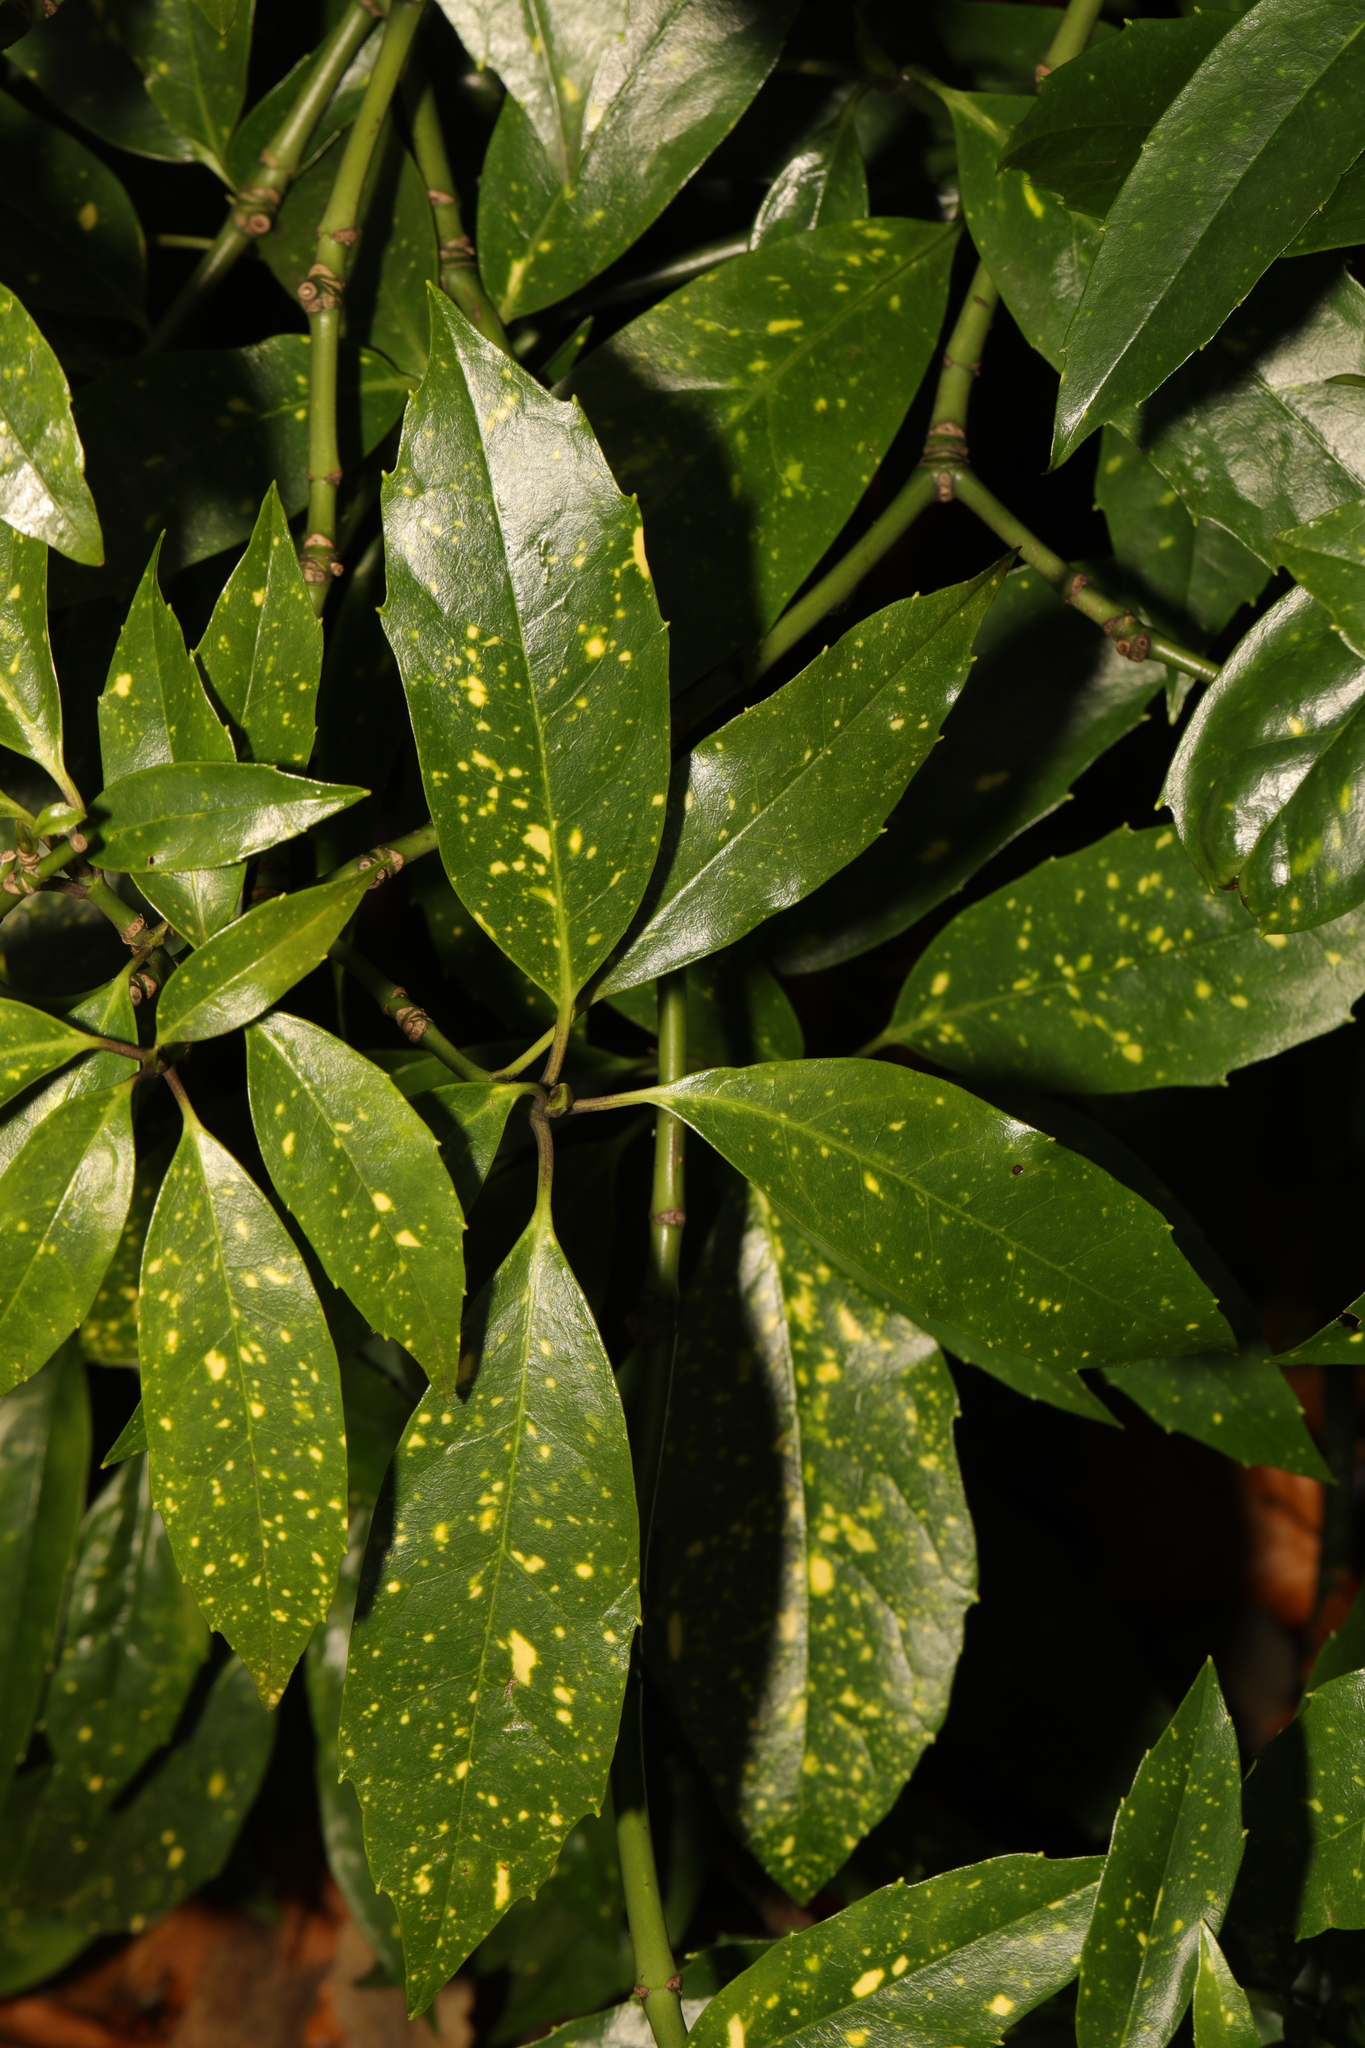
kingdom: Plantae
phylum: Tracheophyta
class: Magnoliopsida
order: Garryales
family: Garryaceae
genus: Aucuba
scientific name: Aucuba japonica
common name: Spotted-laurel
